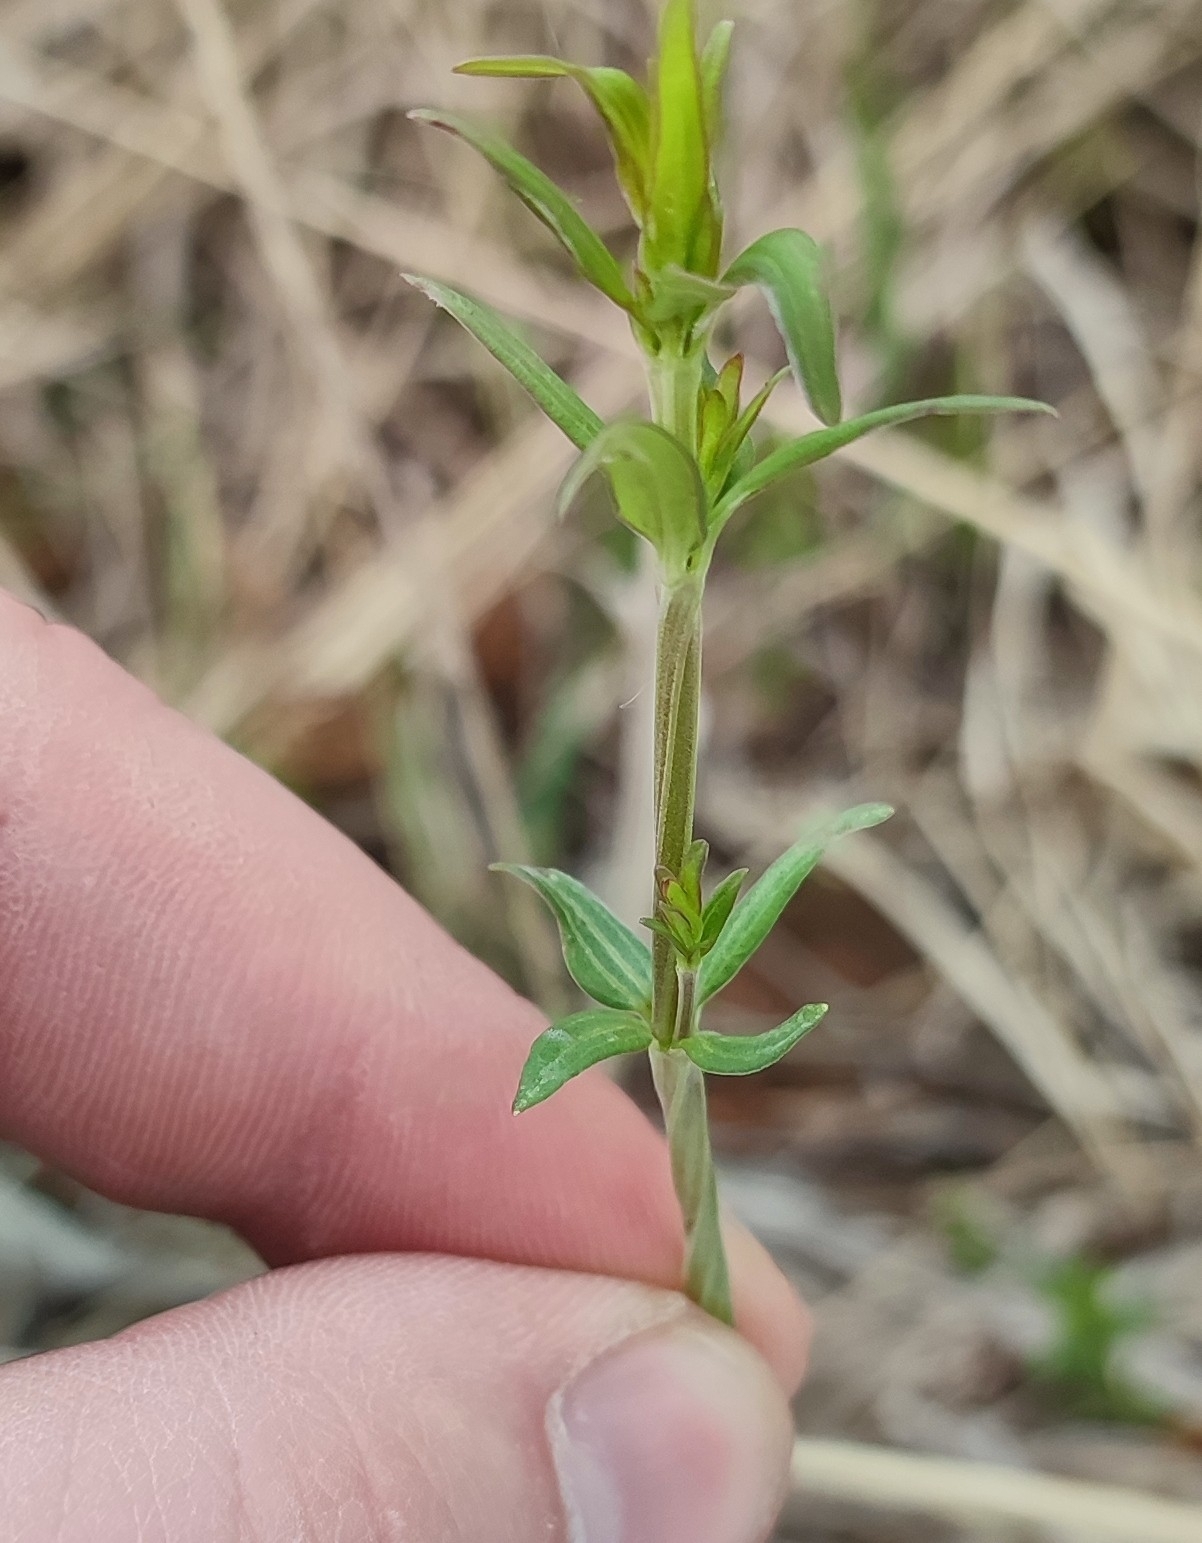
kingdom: Plantae
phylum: Tracheophyta
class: Magnoliopsida
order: Gentianales
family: Rubiaceae
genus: Galium
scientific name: Galium boreale
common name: Northern bedstraw
